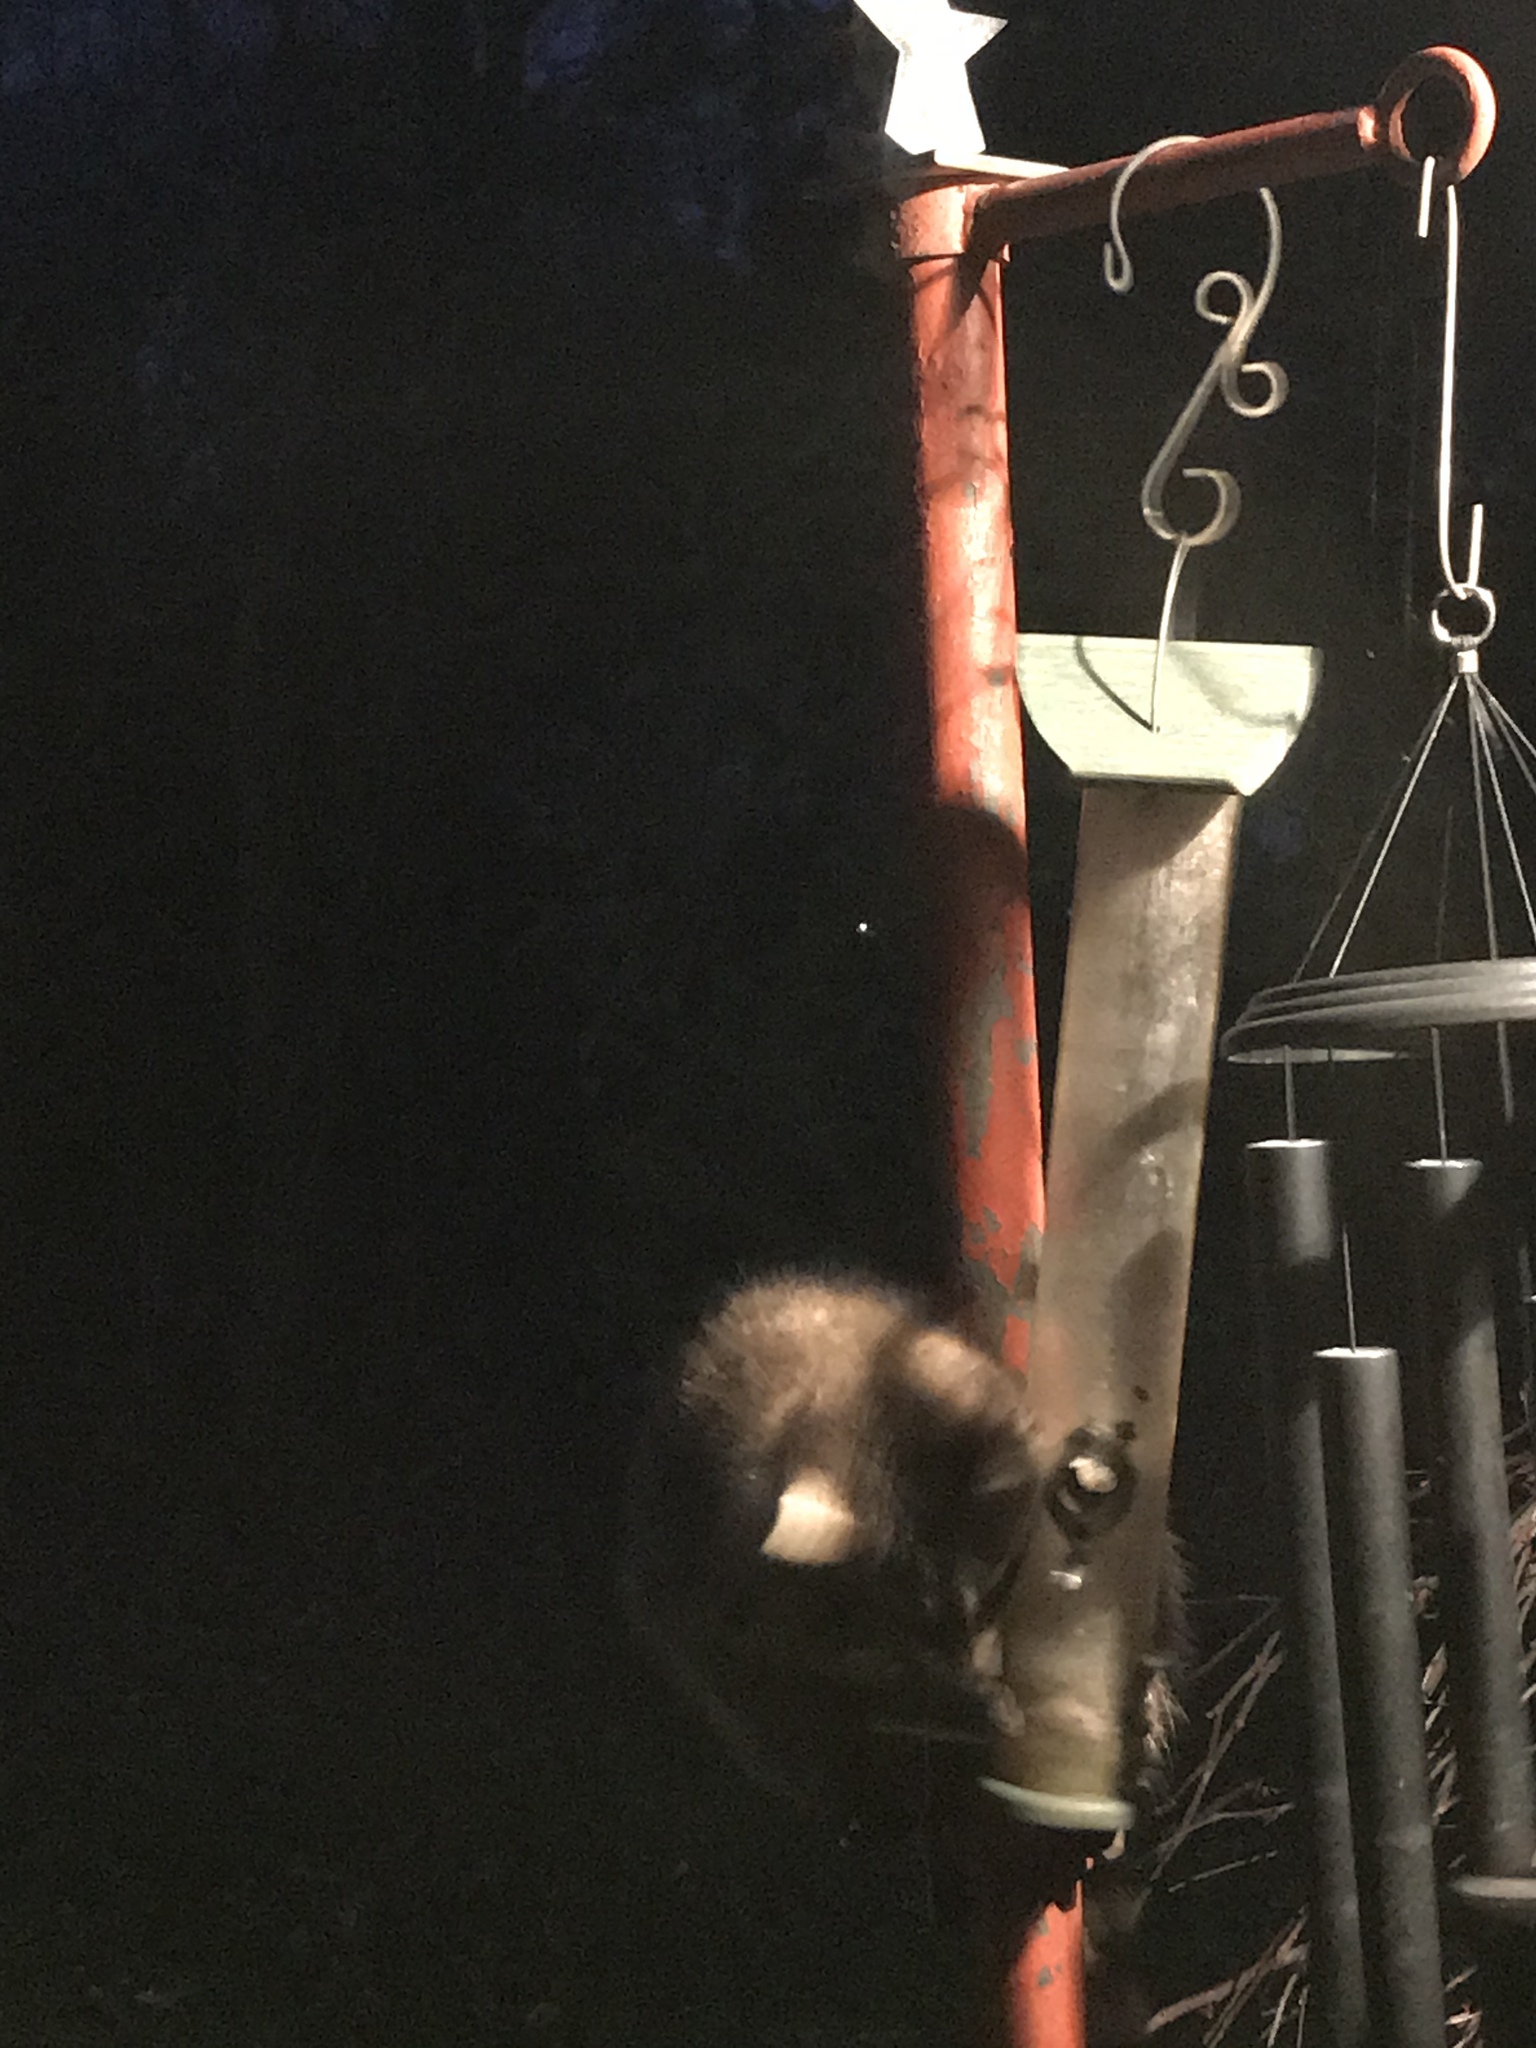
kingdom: Animalia
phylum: Chordata
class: Mammalia
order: Carnivora
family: Procyonidae
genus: Procyon
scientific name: Procyon lotor
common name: Raccoon
